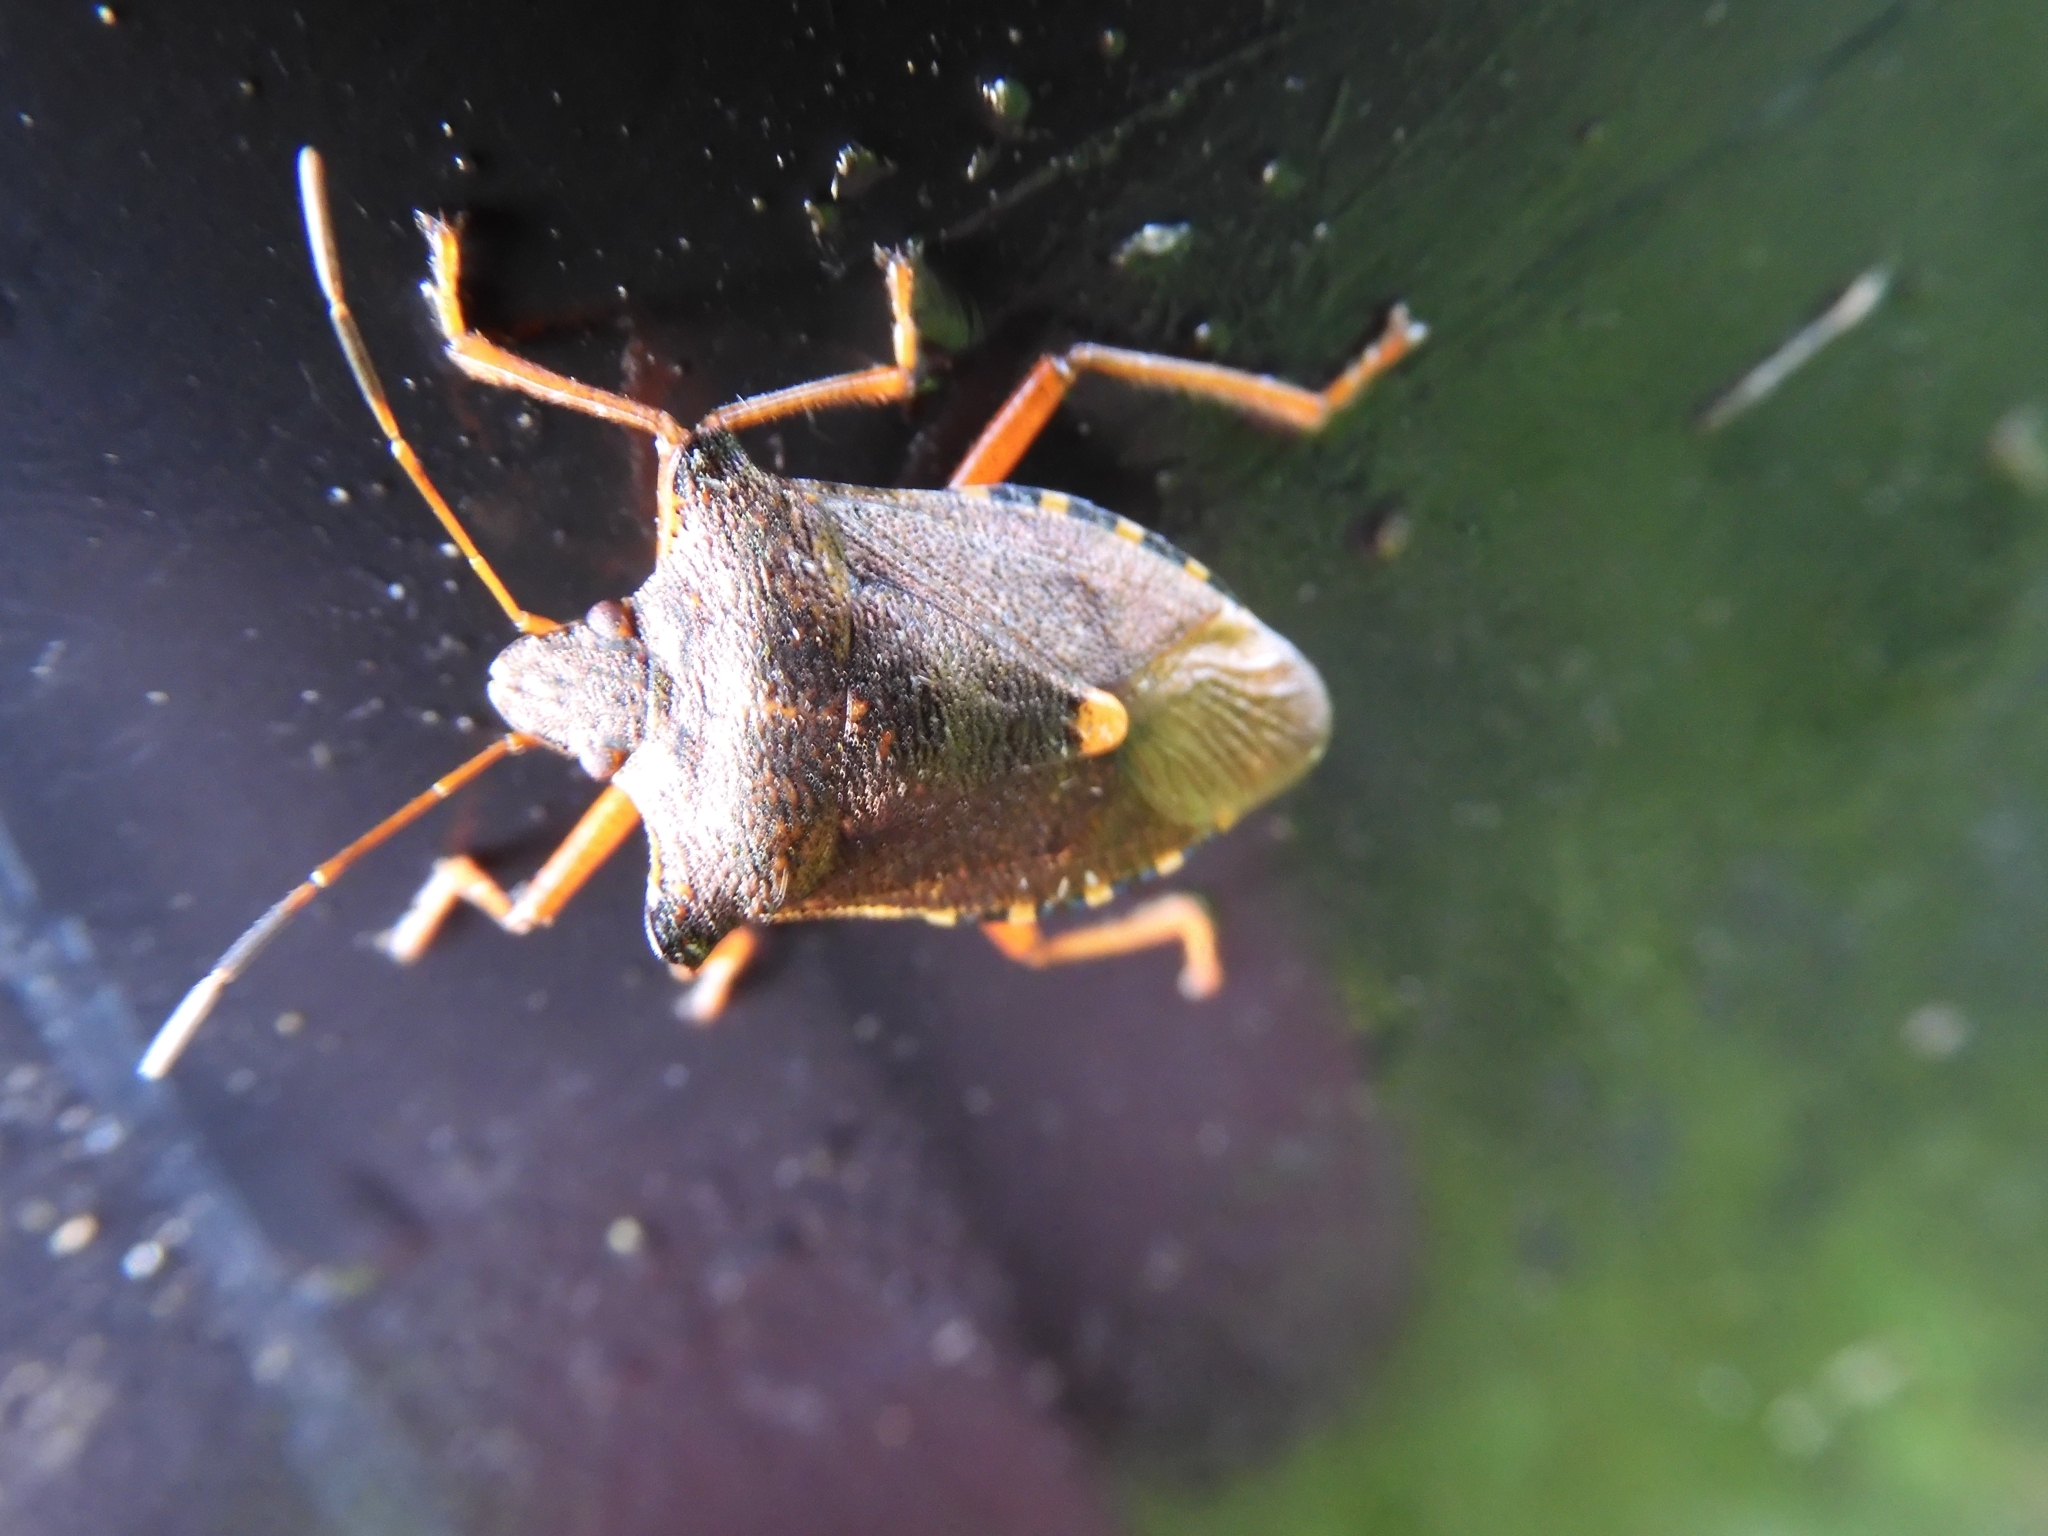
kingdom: Animalia
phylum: Arthropoda
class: Insecta
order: Hemiptera
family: Pentatomidae
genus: Pentatoma
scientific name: Pentatoma rufipes
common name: Forest bug
